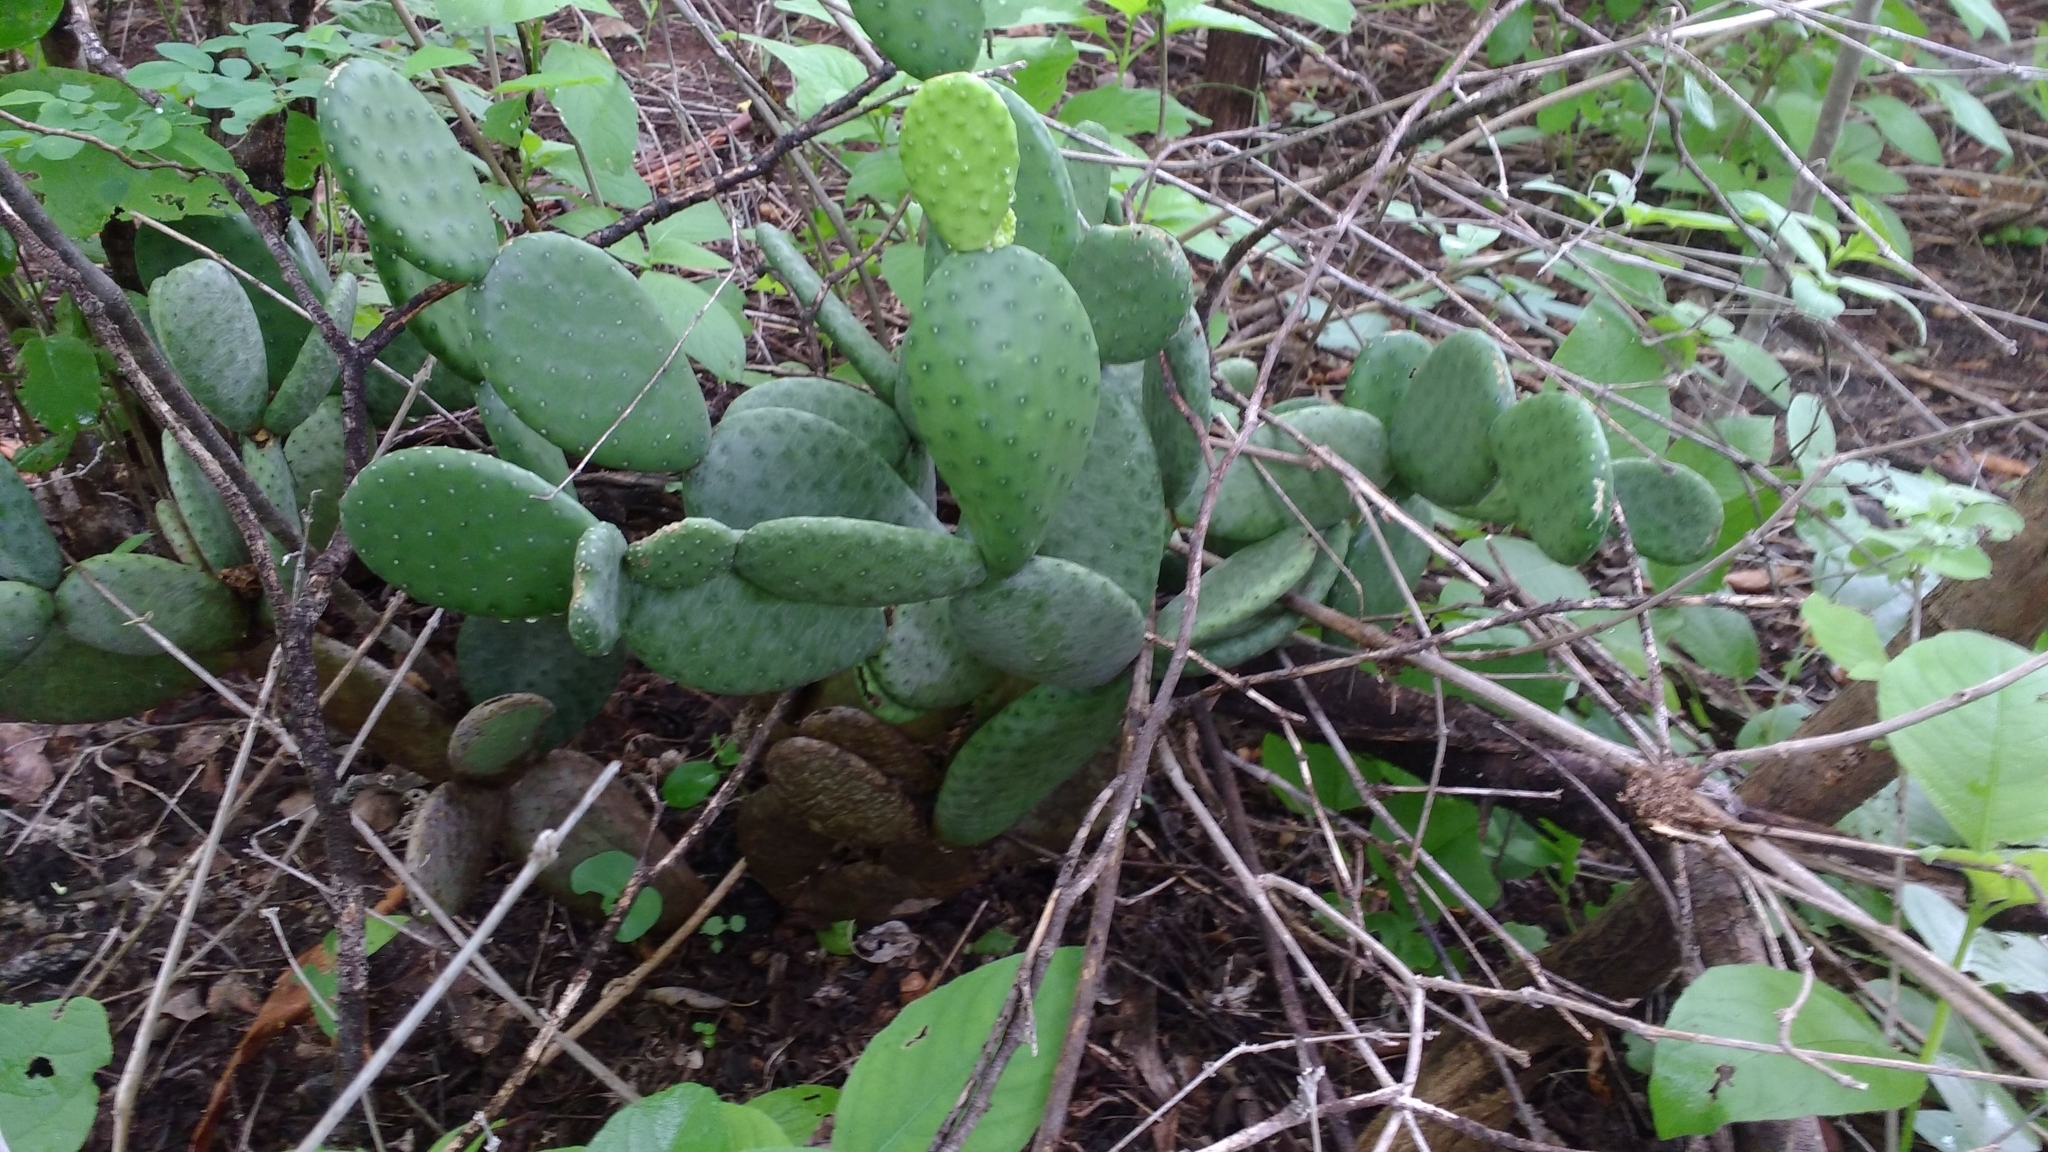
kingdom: Plantae
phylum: Tracheophyta
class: Magnoliopsida
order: Caryophyllales
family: Cactaceae
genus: Tacinga
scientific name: Tacinga inamoena
